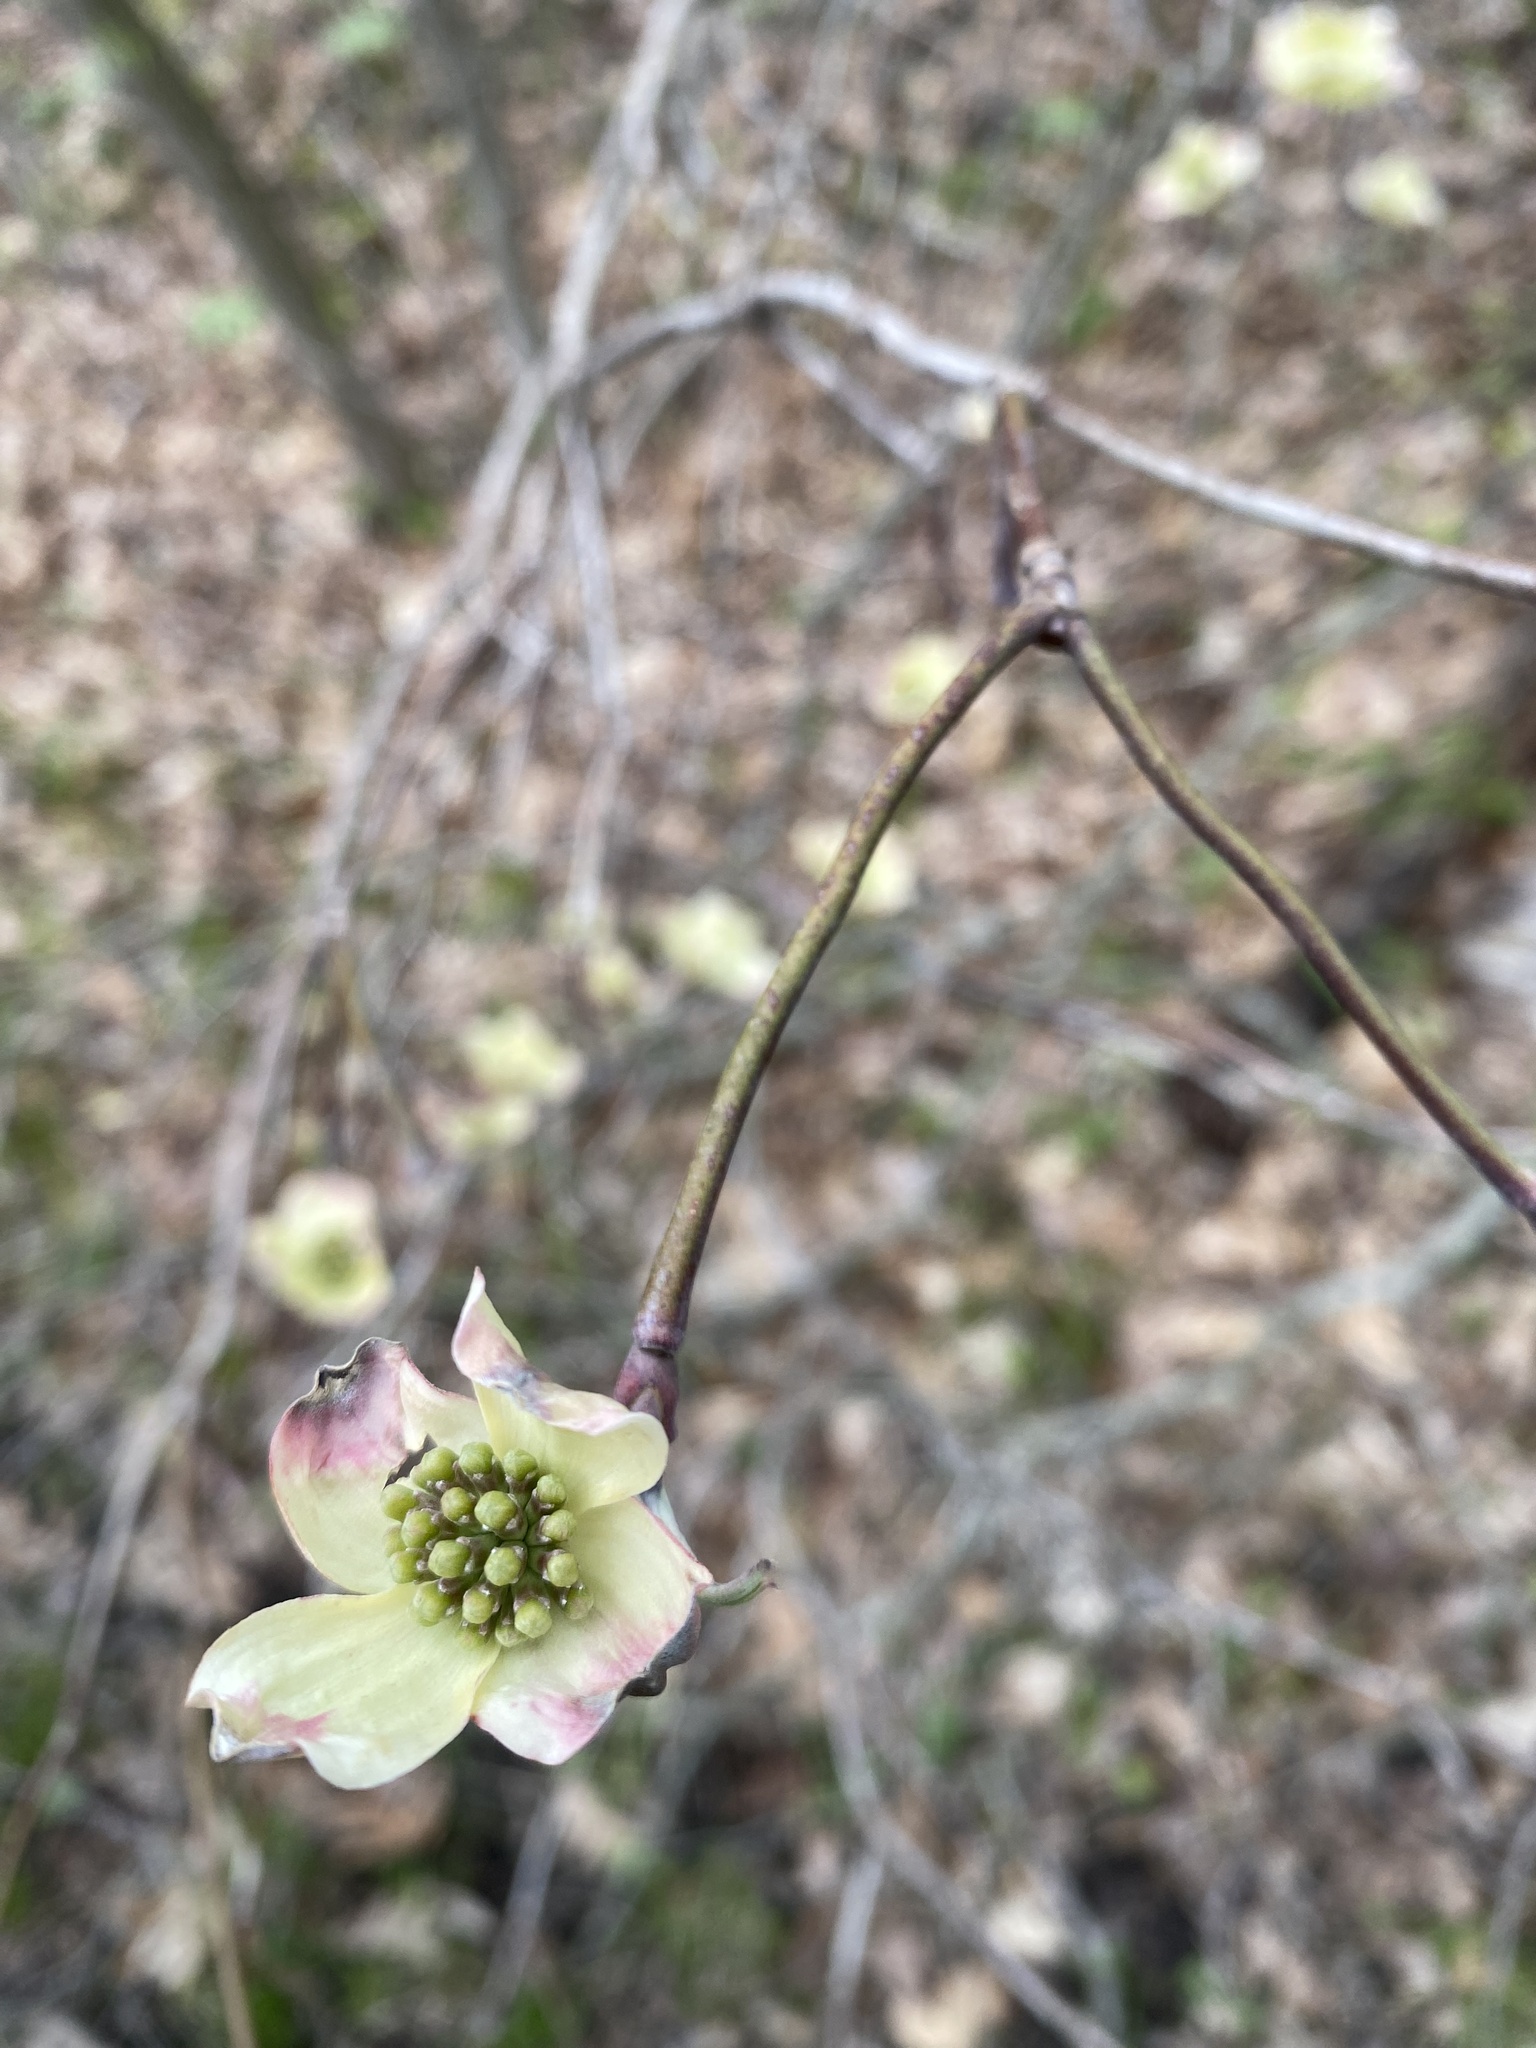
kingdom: Plantae
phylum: Tracheophyta
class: Magnoliopsida
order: Cornales
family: Cornaceae
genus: Cornus
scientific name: Cornus florida
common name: Flowering dogwood
